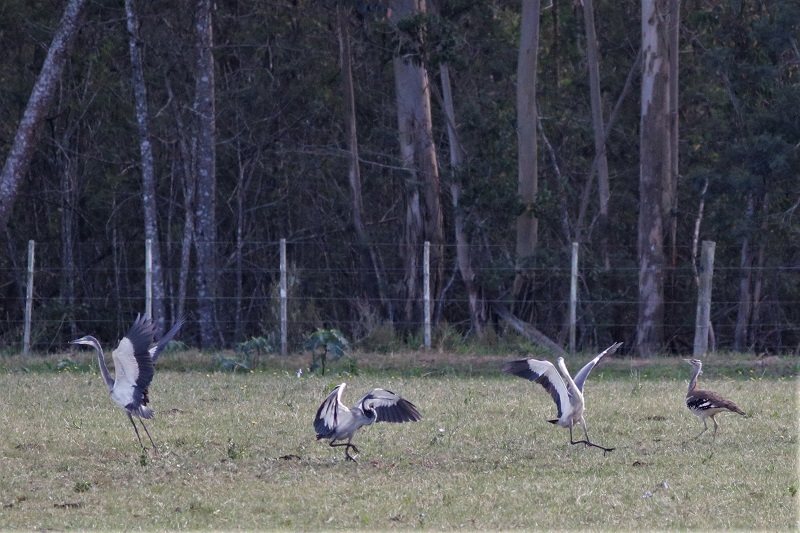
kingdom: Animalia
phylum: Chordata
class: Aves
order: Pelecaniformes
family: Ardeidae
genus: Ardea
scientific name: Ardea melanocephala
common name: Black-headed heron
